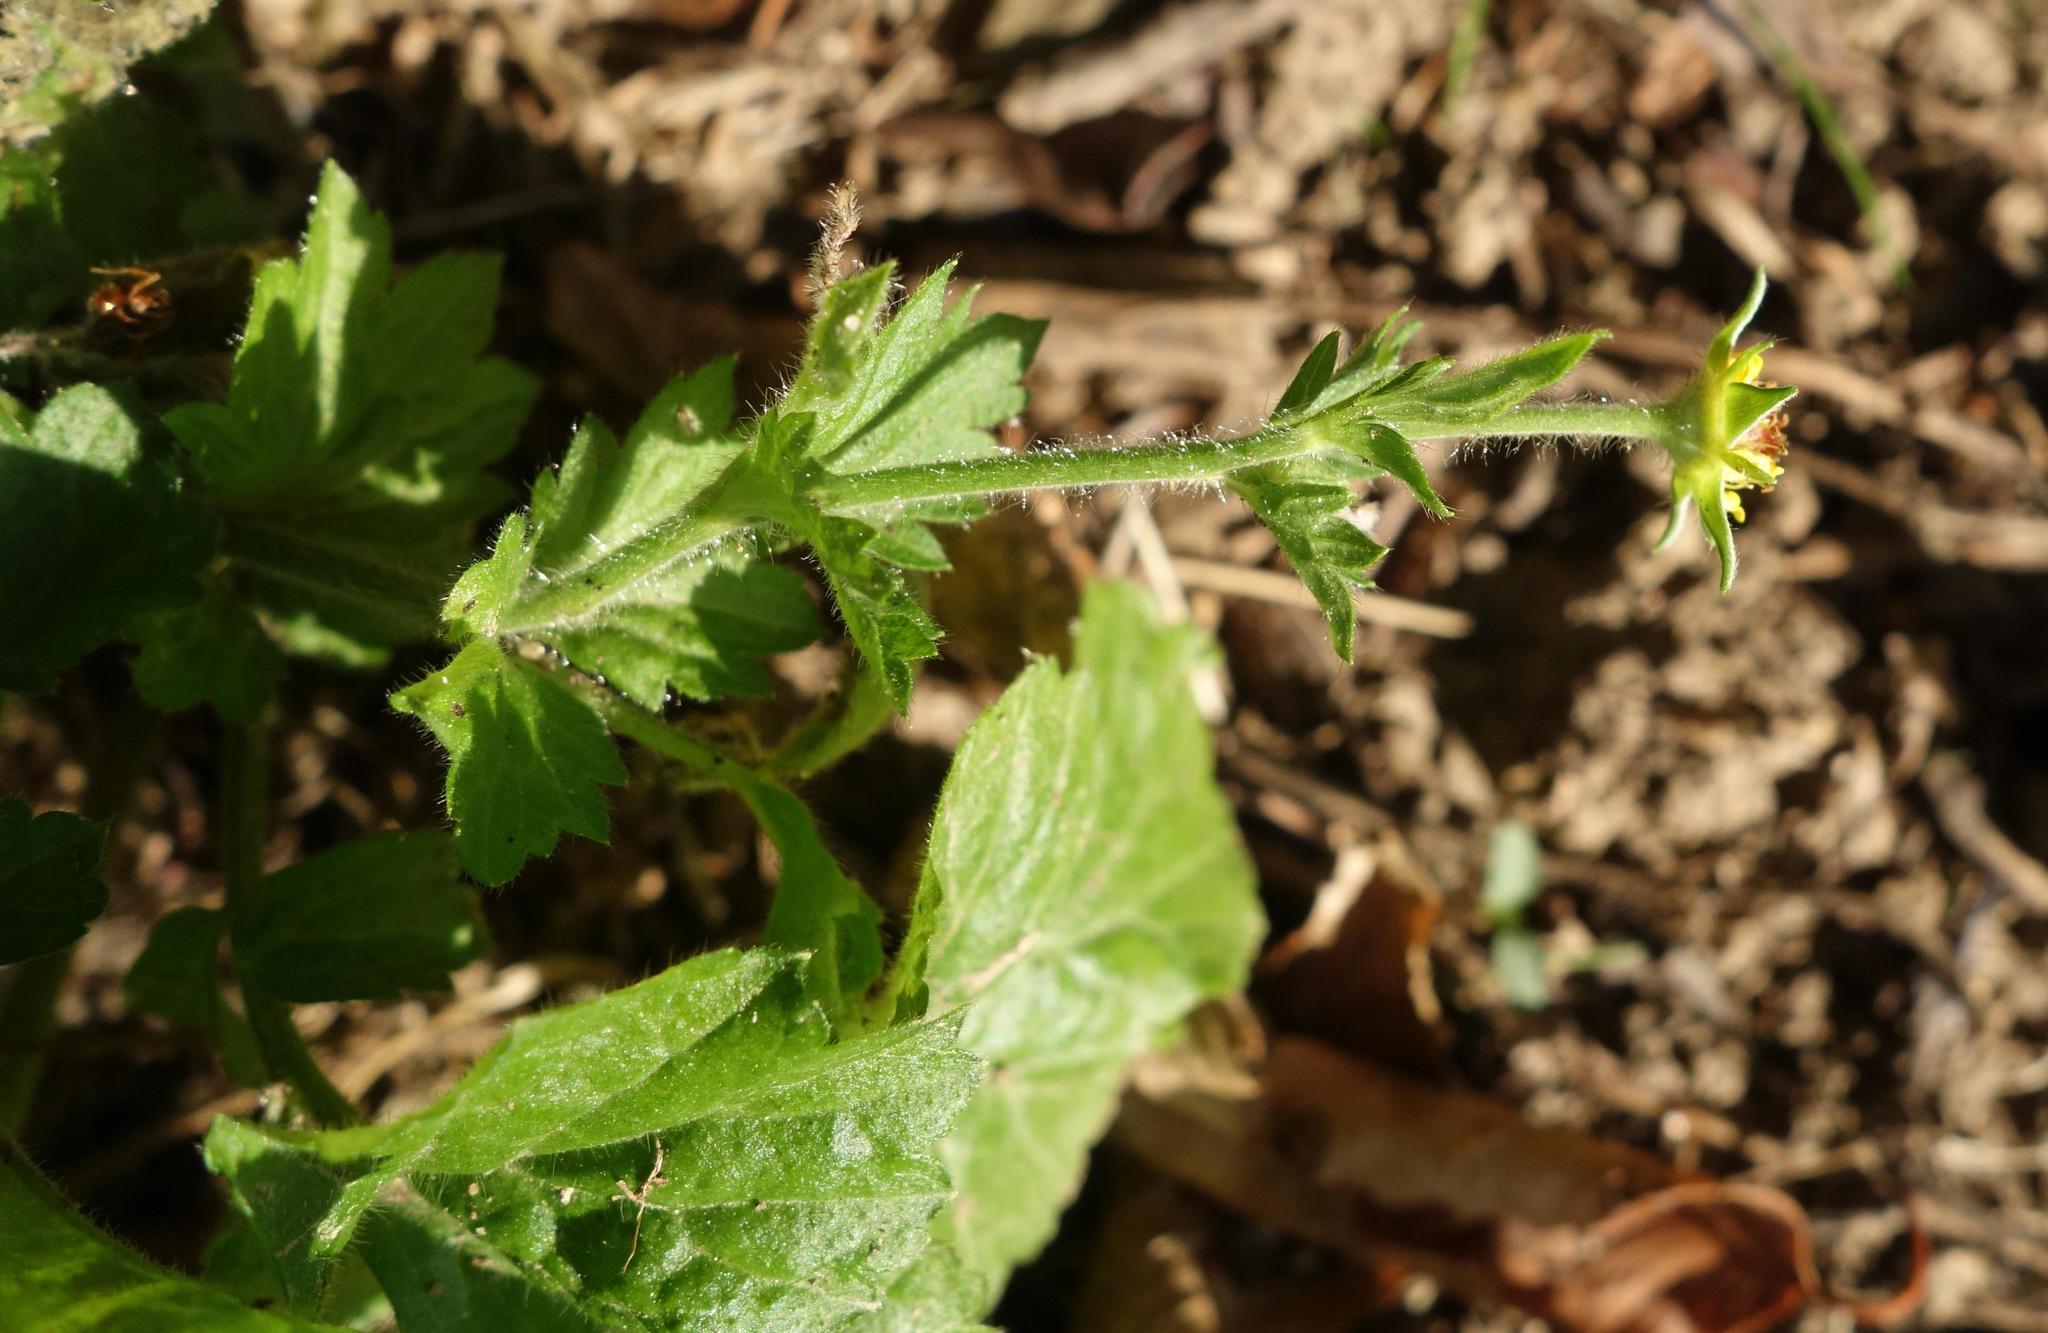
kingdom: Plantae
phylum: Tracheophyta
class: Magnoliopsida
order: Rosales
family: Rosaceae
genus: Geum
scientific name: Geum urbanum
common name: Wood avens
